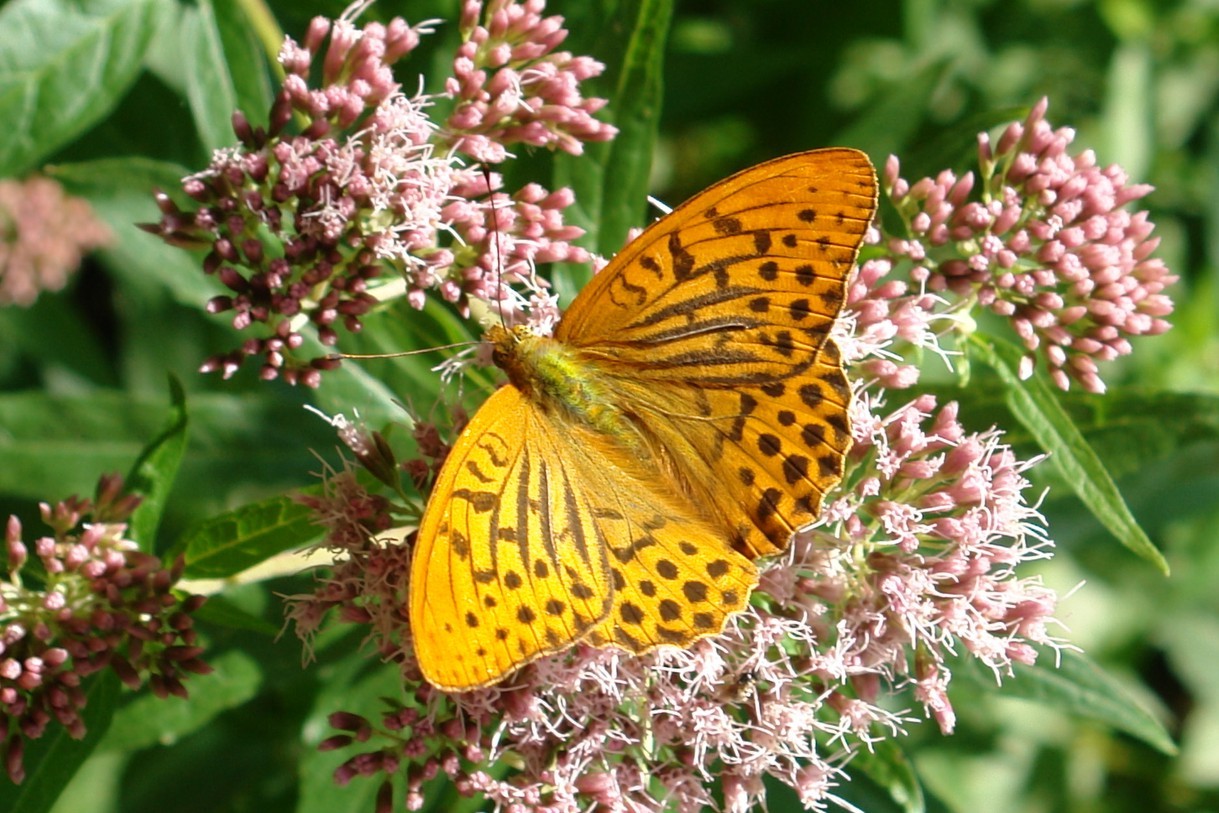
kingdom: Animalia
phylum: Arthropoda
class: Insecta
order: Lepidoptera
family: Nymphalidae
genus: Argynnis
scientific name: Argynnis paphia
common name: Silver-washed fritillary
